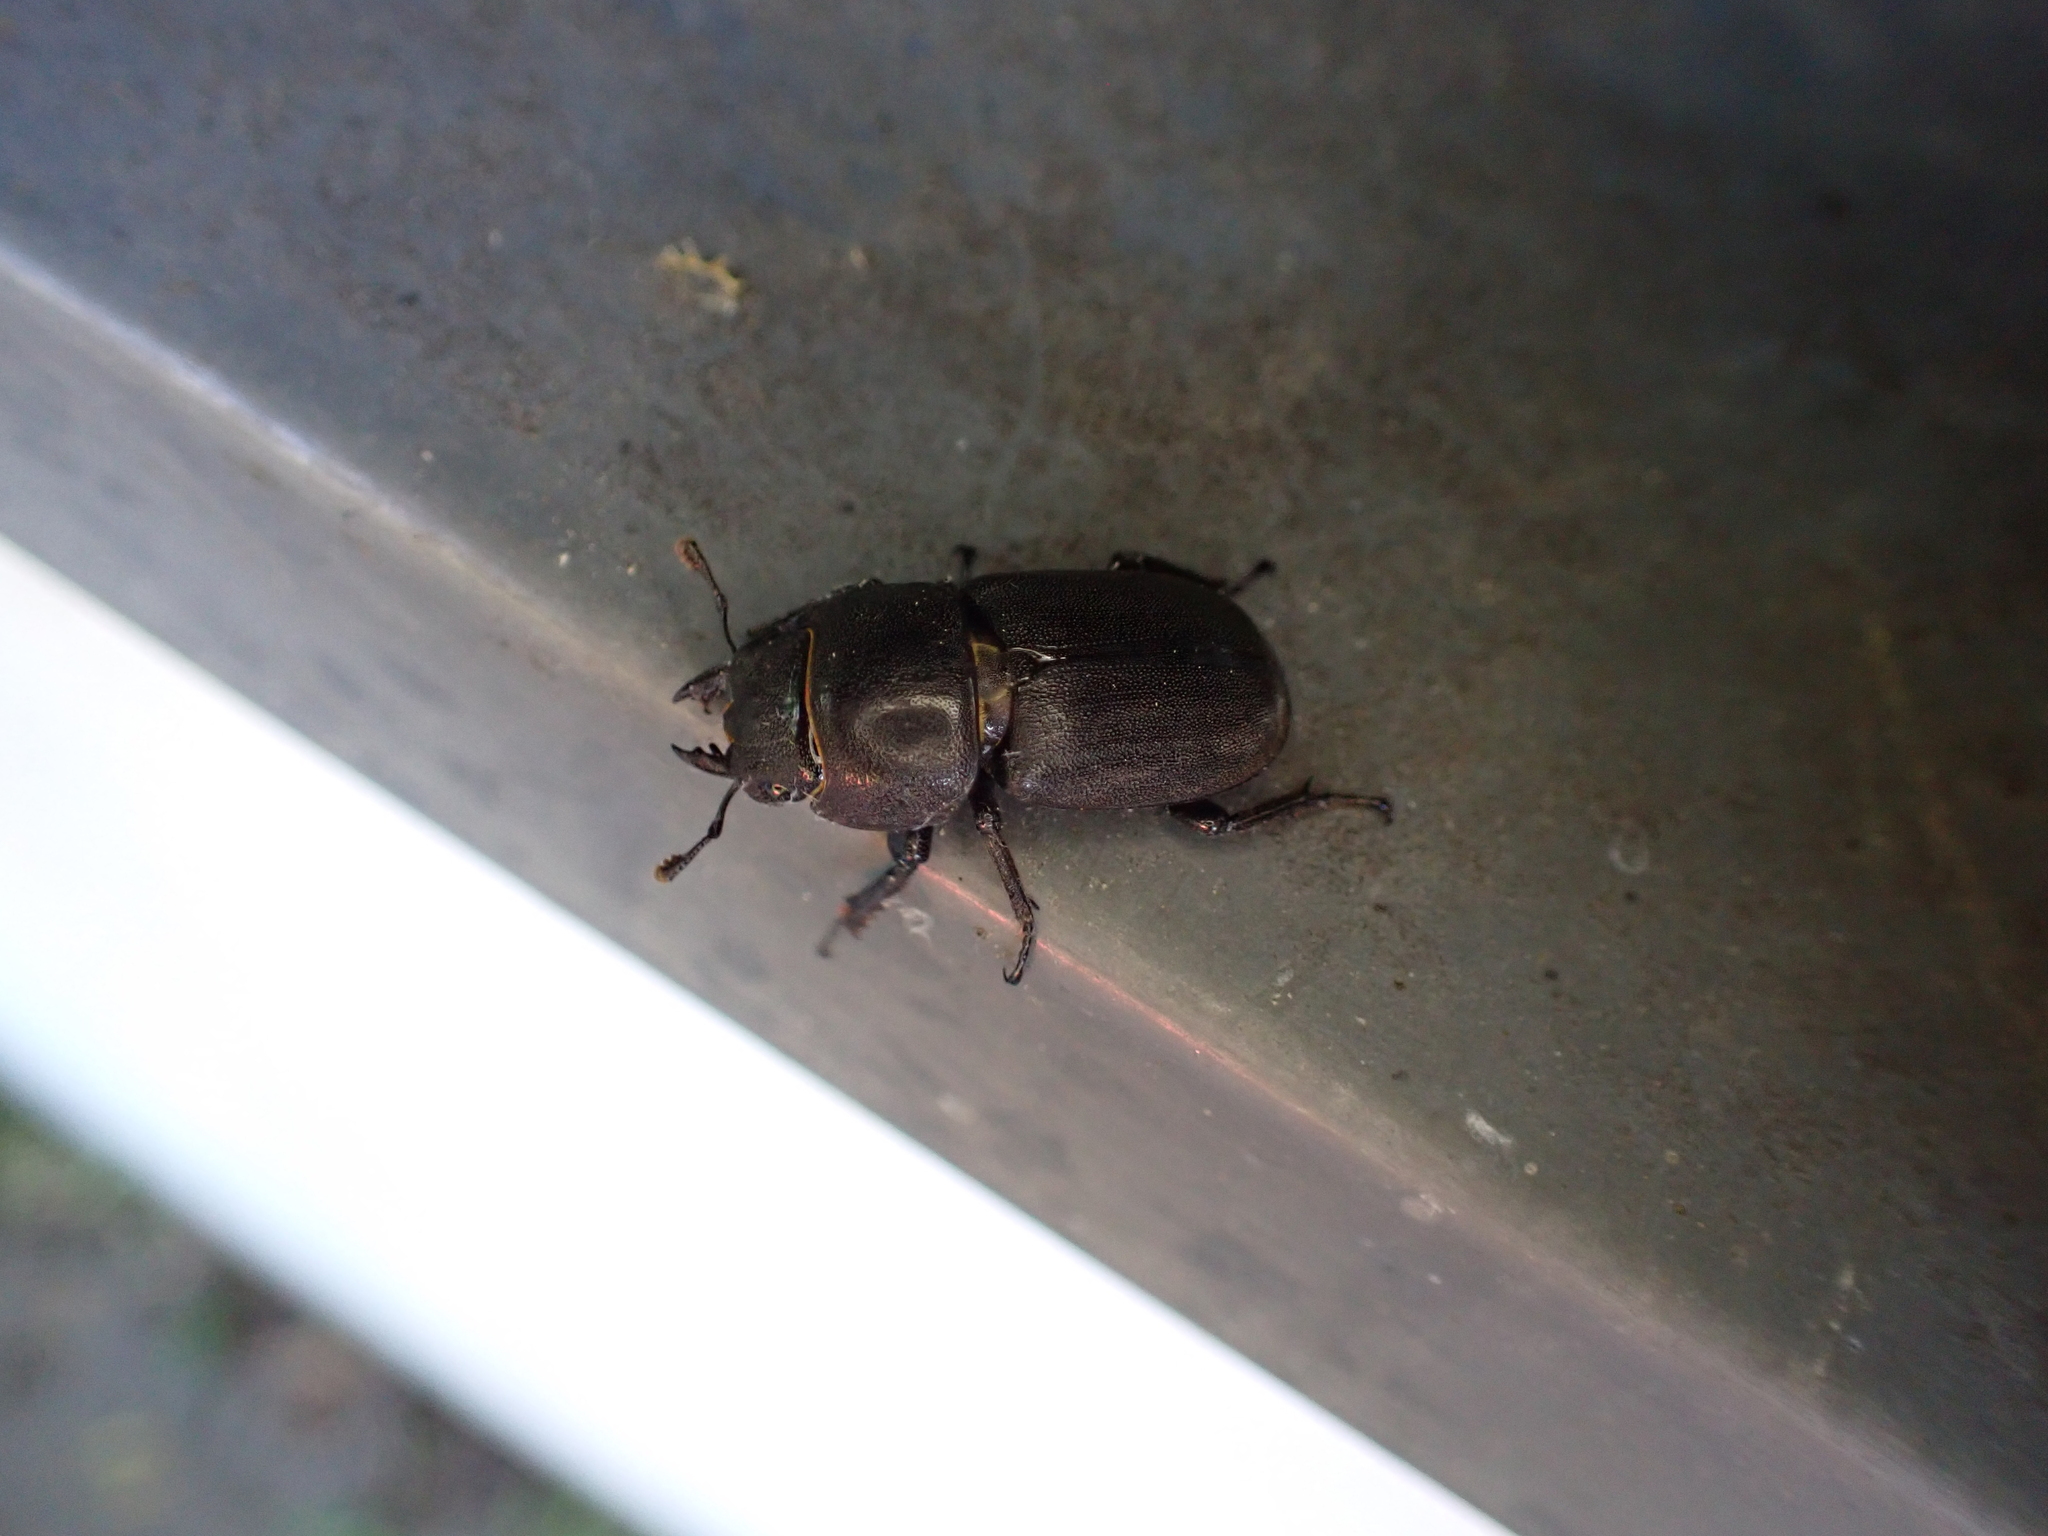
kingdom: Animalia
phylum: Arthropoda
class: Insecta
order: Coleoptera
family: Lucanidae
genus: Dorcus
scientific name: Dorcus parallelipipedus
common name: Lesser stag beetle
